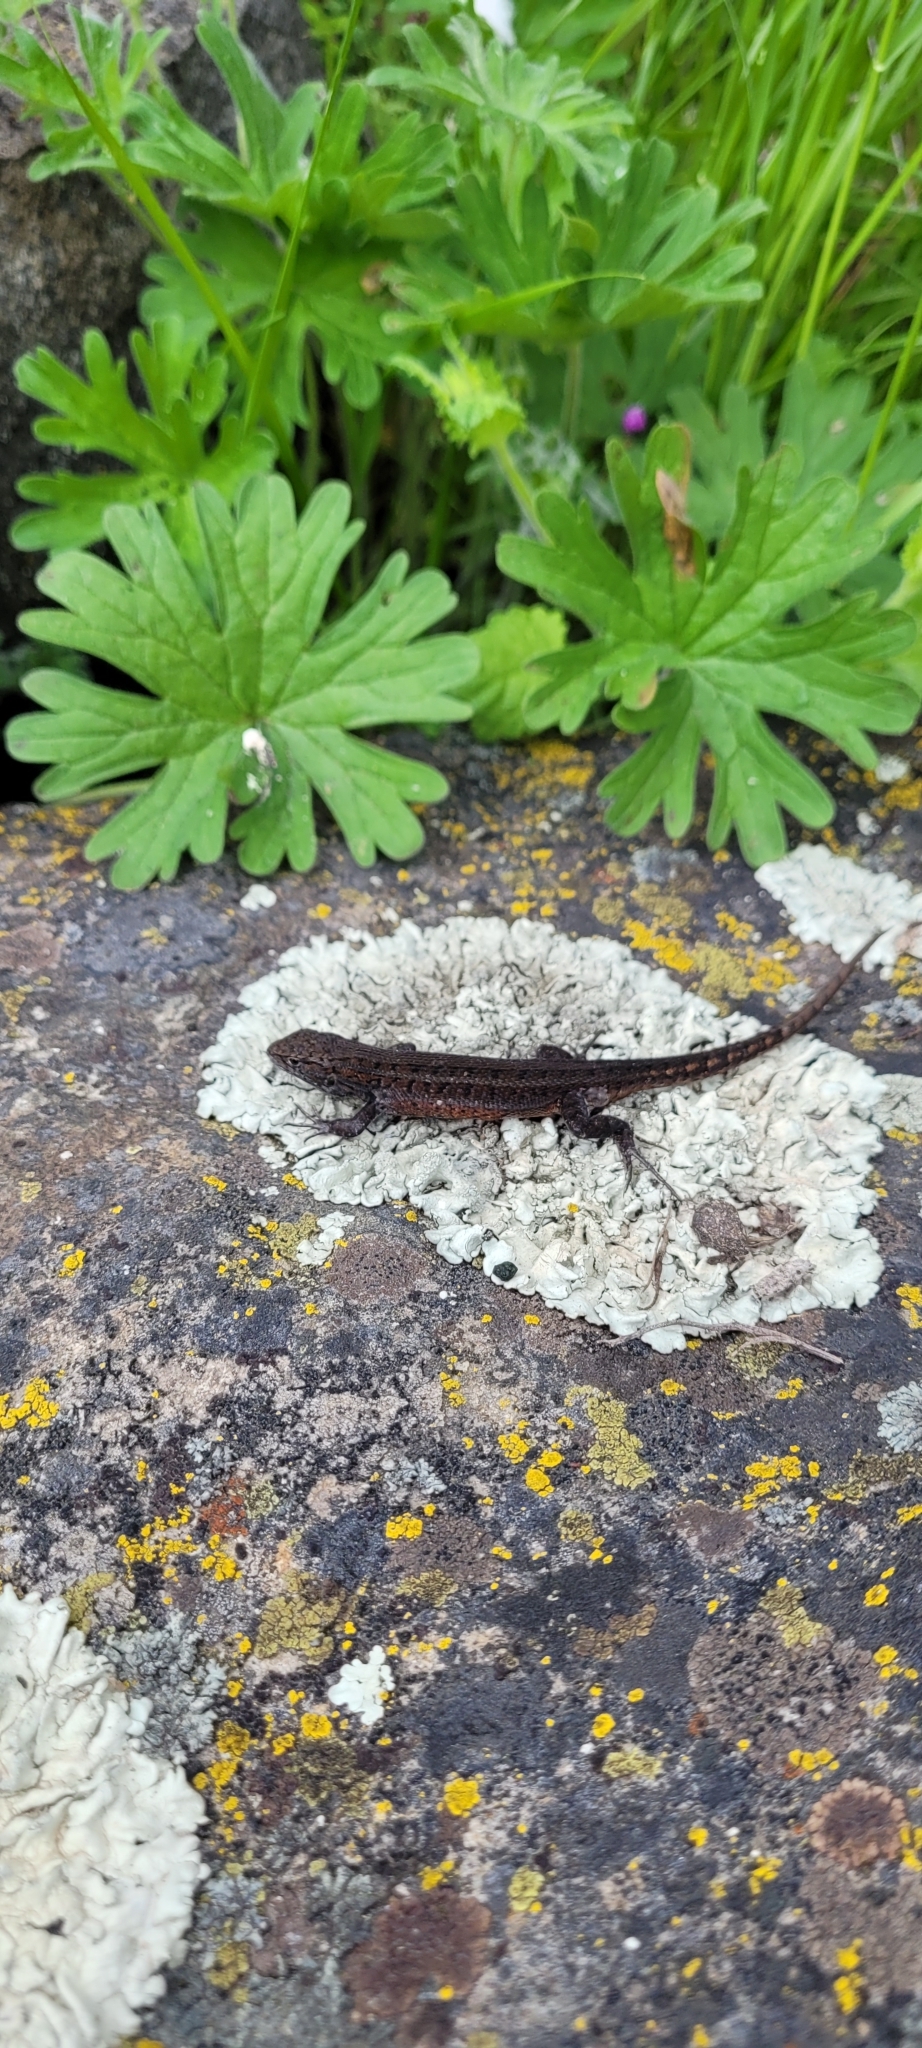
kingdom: Animalia
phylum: Chordata
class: Squamata
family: Liolaemidae
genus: Liolaemus
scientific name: Liolaemus lemniscatus
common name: Wreath tree iguana
